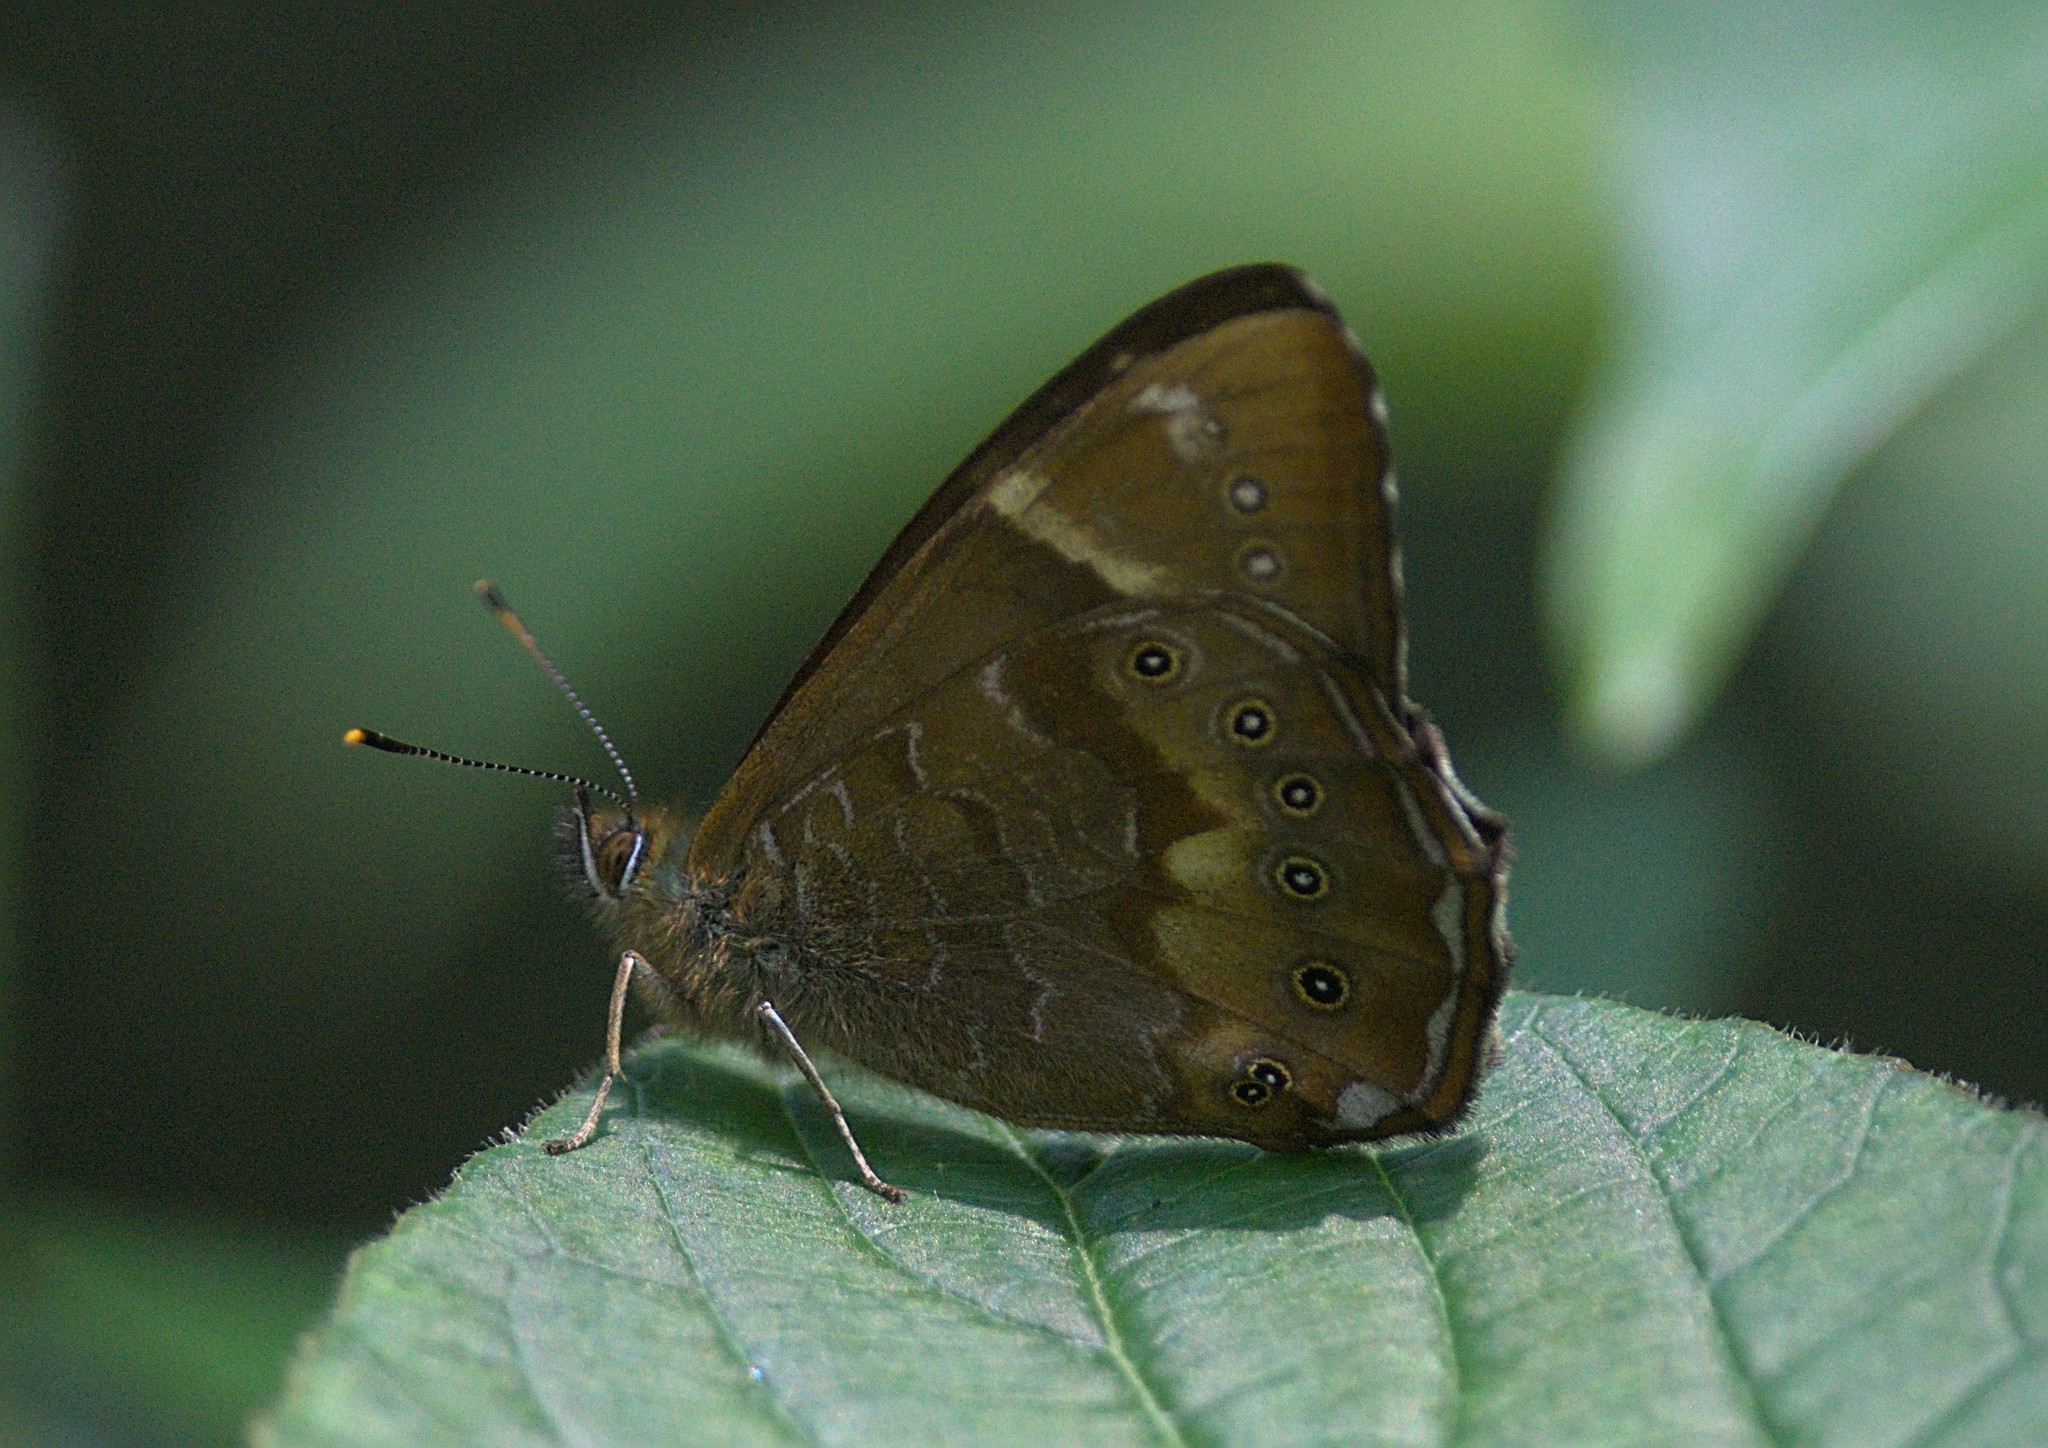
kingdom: Animalia
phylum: Arthropoda
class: Insecta
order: Lepidoptera
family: Nymphalidae
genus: Lethe
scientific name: Lethe nicetas
